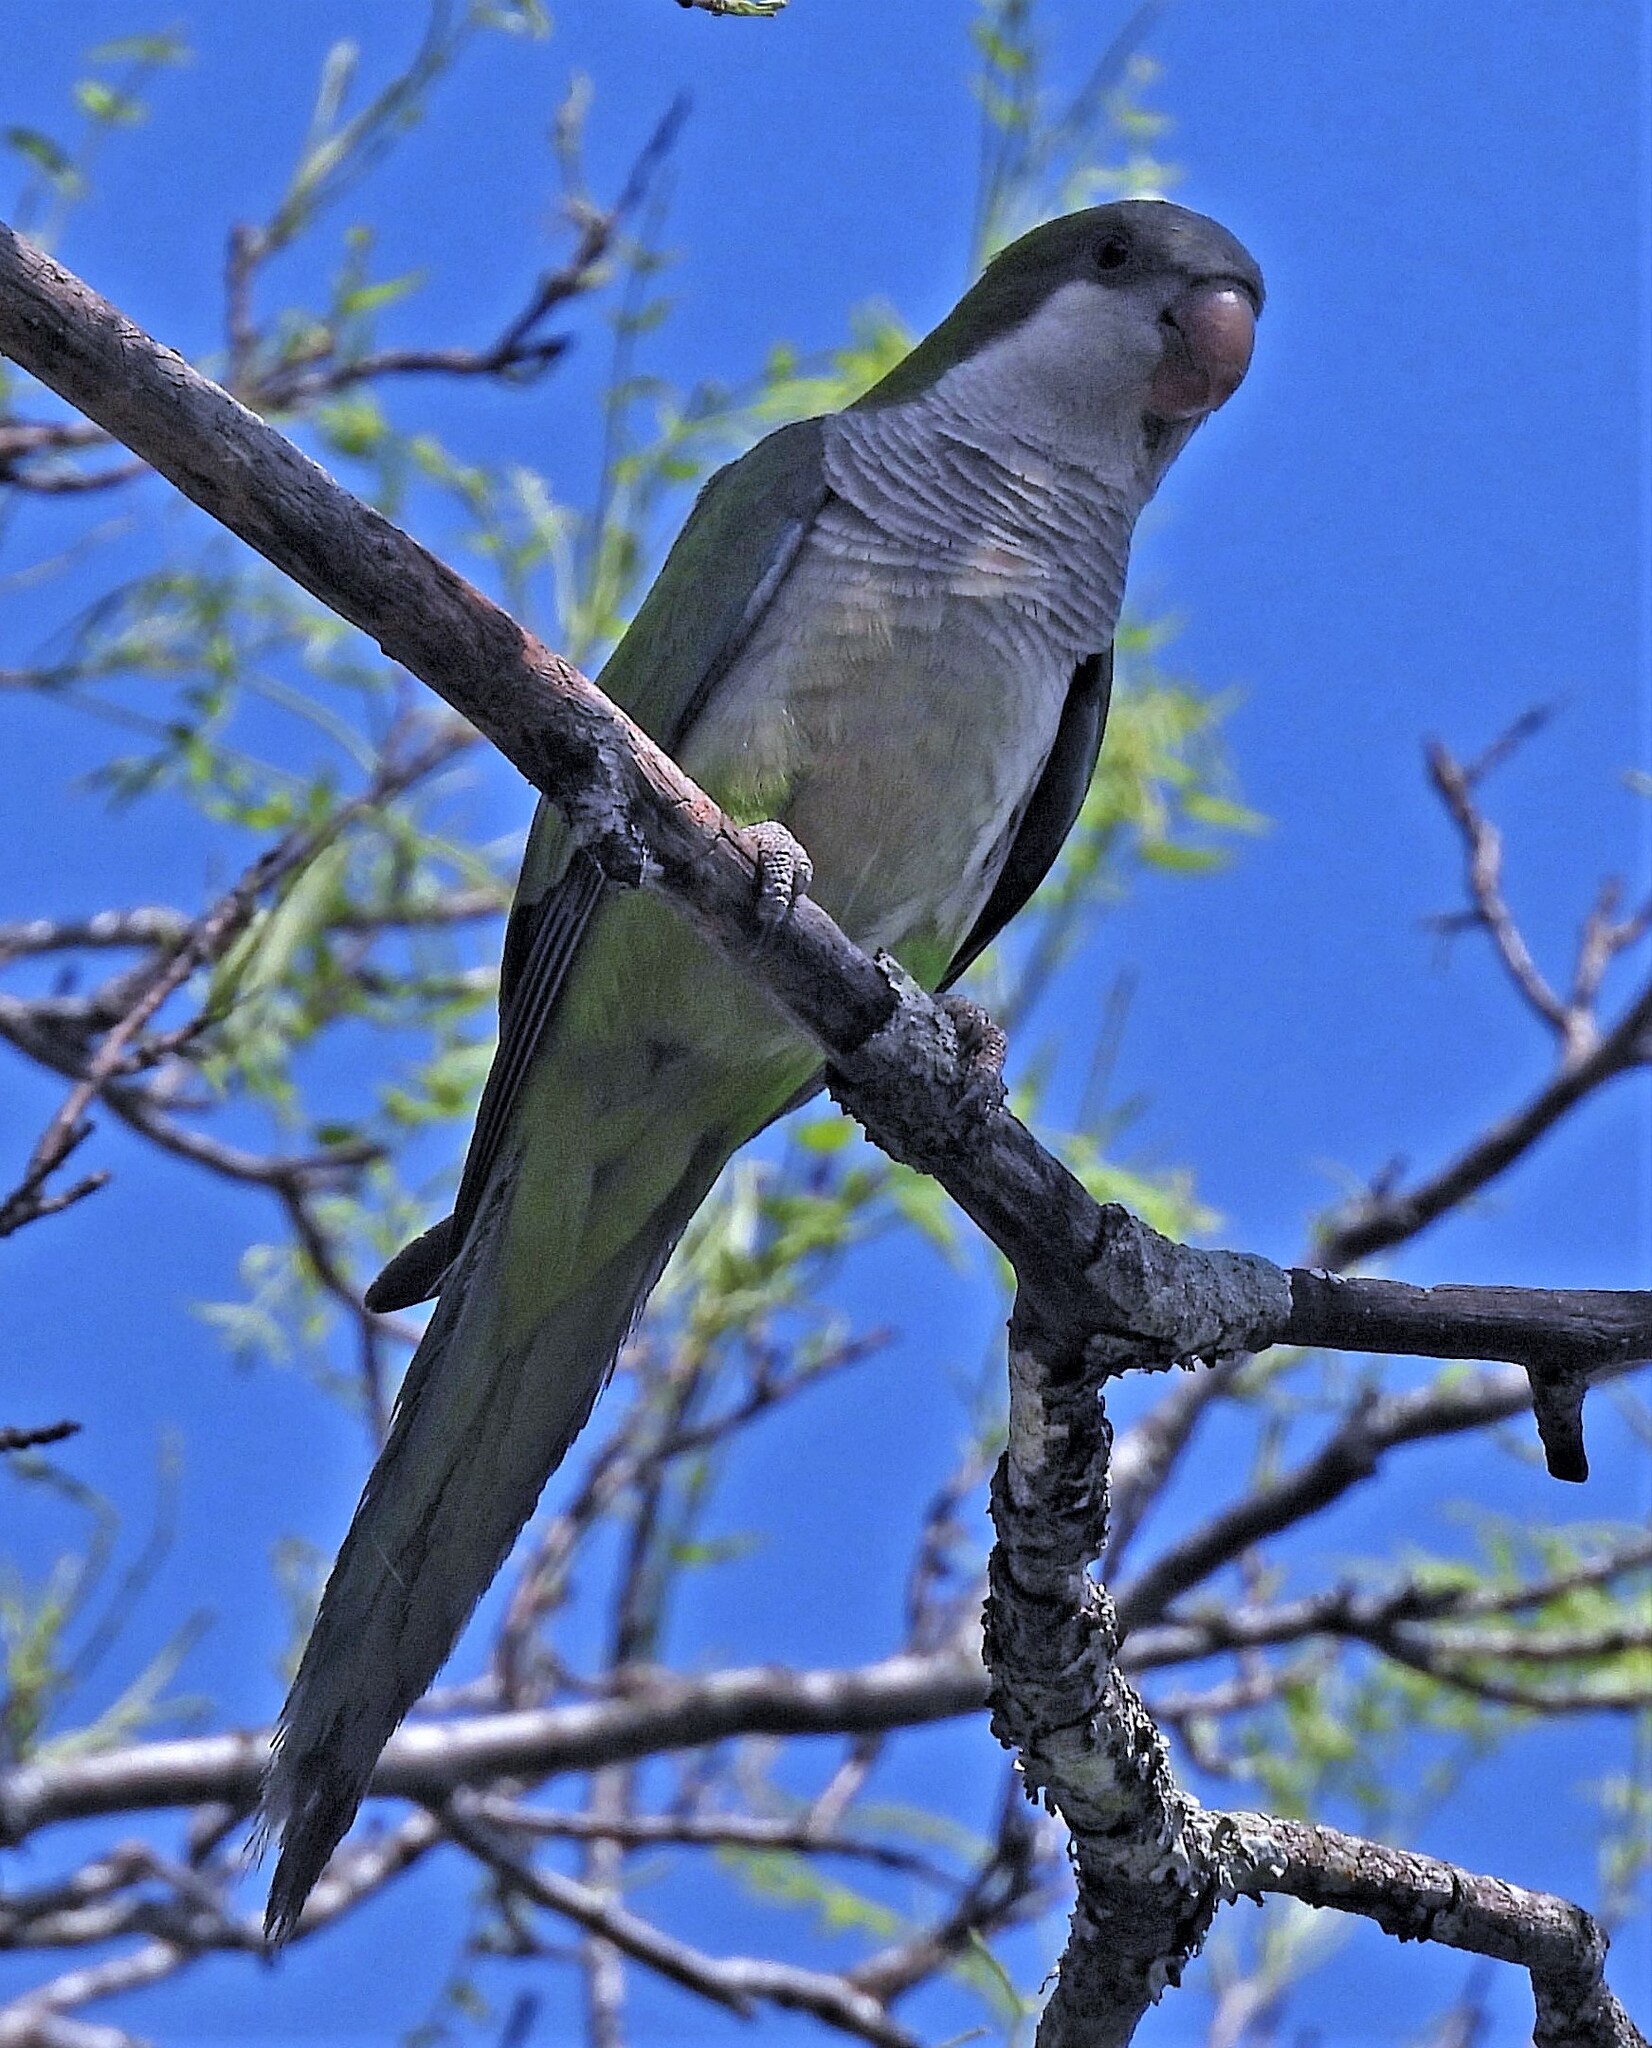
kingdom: Animalia
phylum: Chordata
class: Aves
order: Psittaciformes
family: Psittacidae
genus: Myiopsitta
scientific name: Myiopsitta monachus
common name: Monk parakeet
